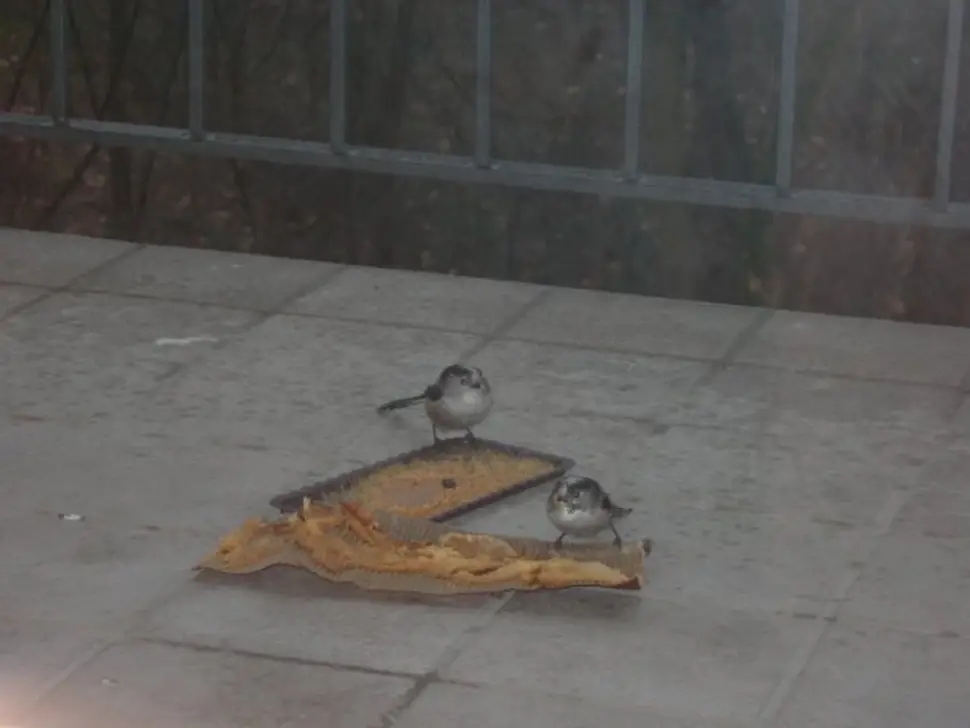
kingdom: Animalia
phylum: Chordata
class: Aves
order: Passeriformes
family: Aegithalidae
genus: Aegithalos
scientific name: Aegithalos caudatus
